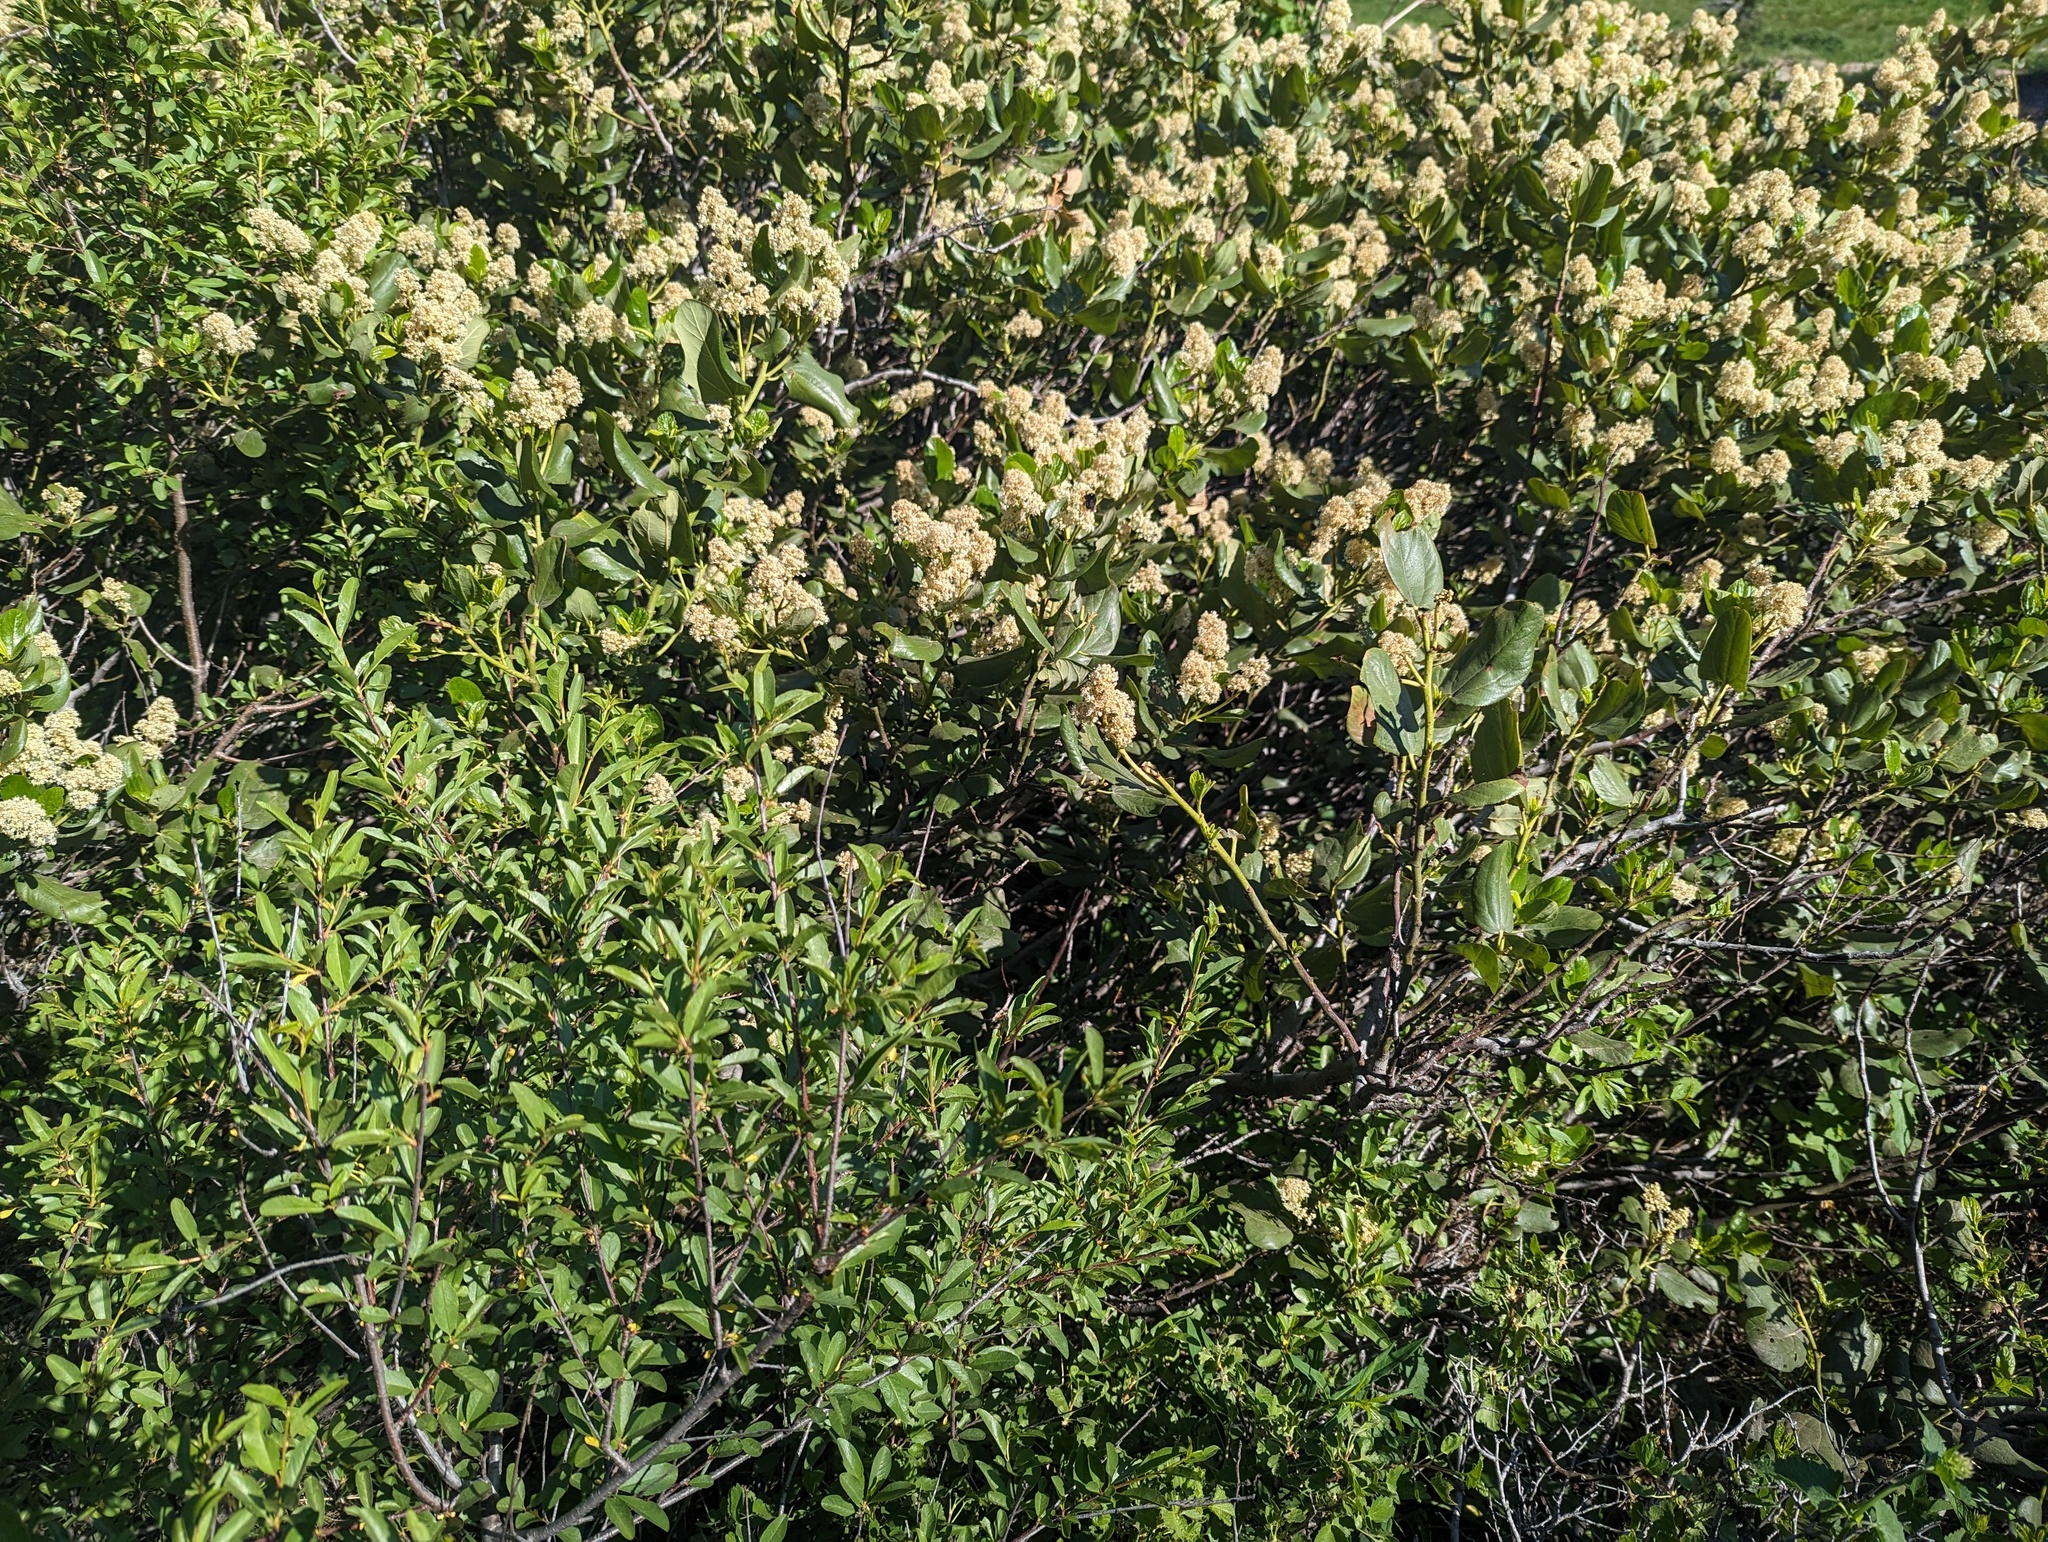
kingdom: Plantae
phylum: Tracheophyta
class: Magnoliopsida
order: Rosales
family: Rhamnaceae
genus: Ceanothus
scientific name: Ceanothus velutinus
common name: Snowbrush
